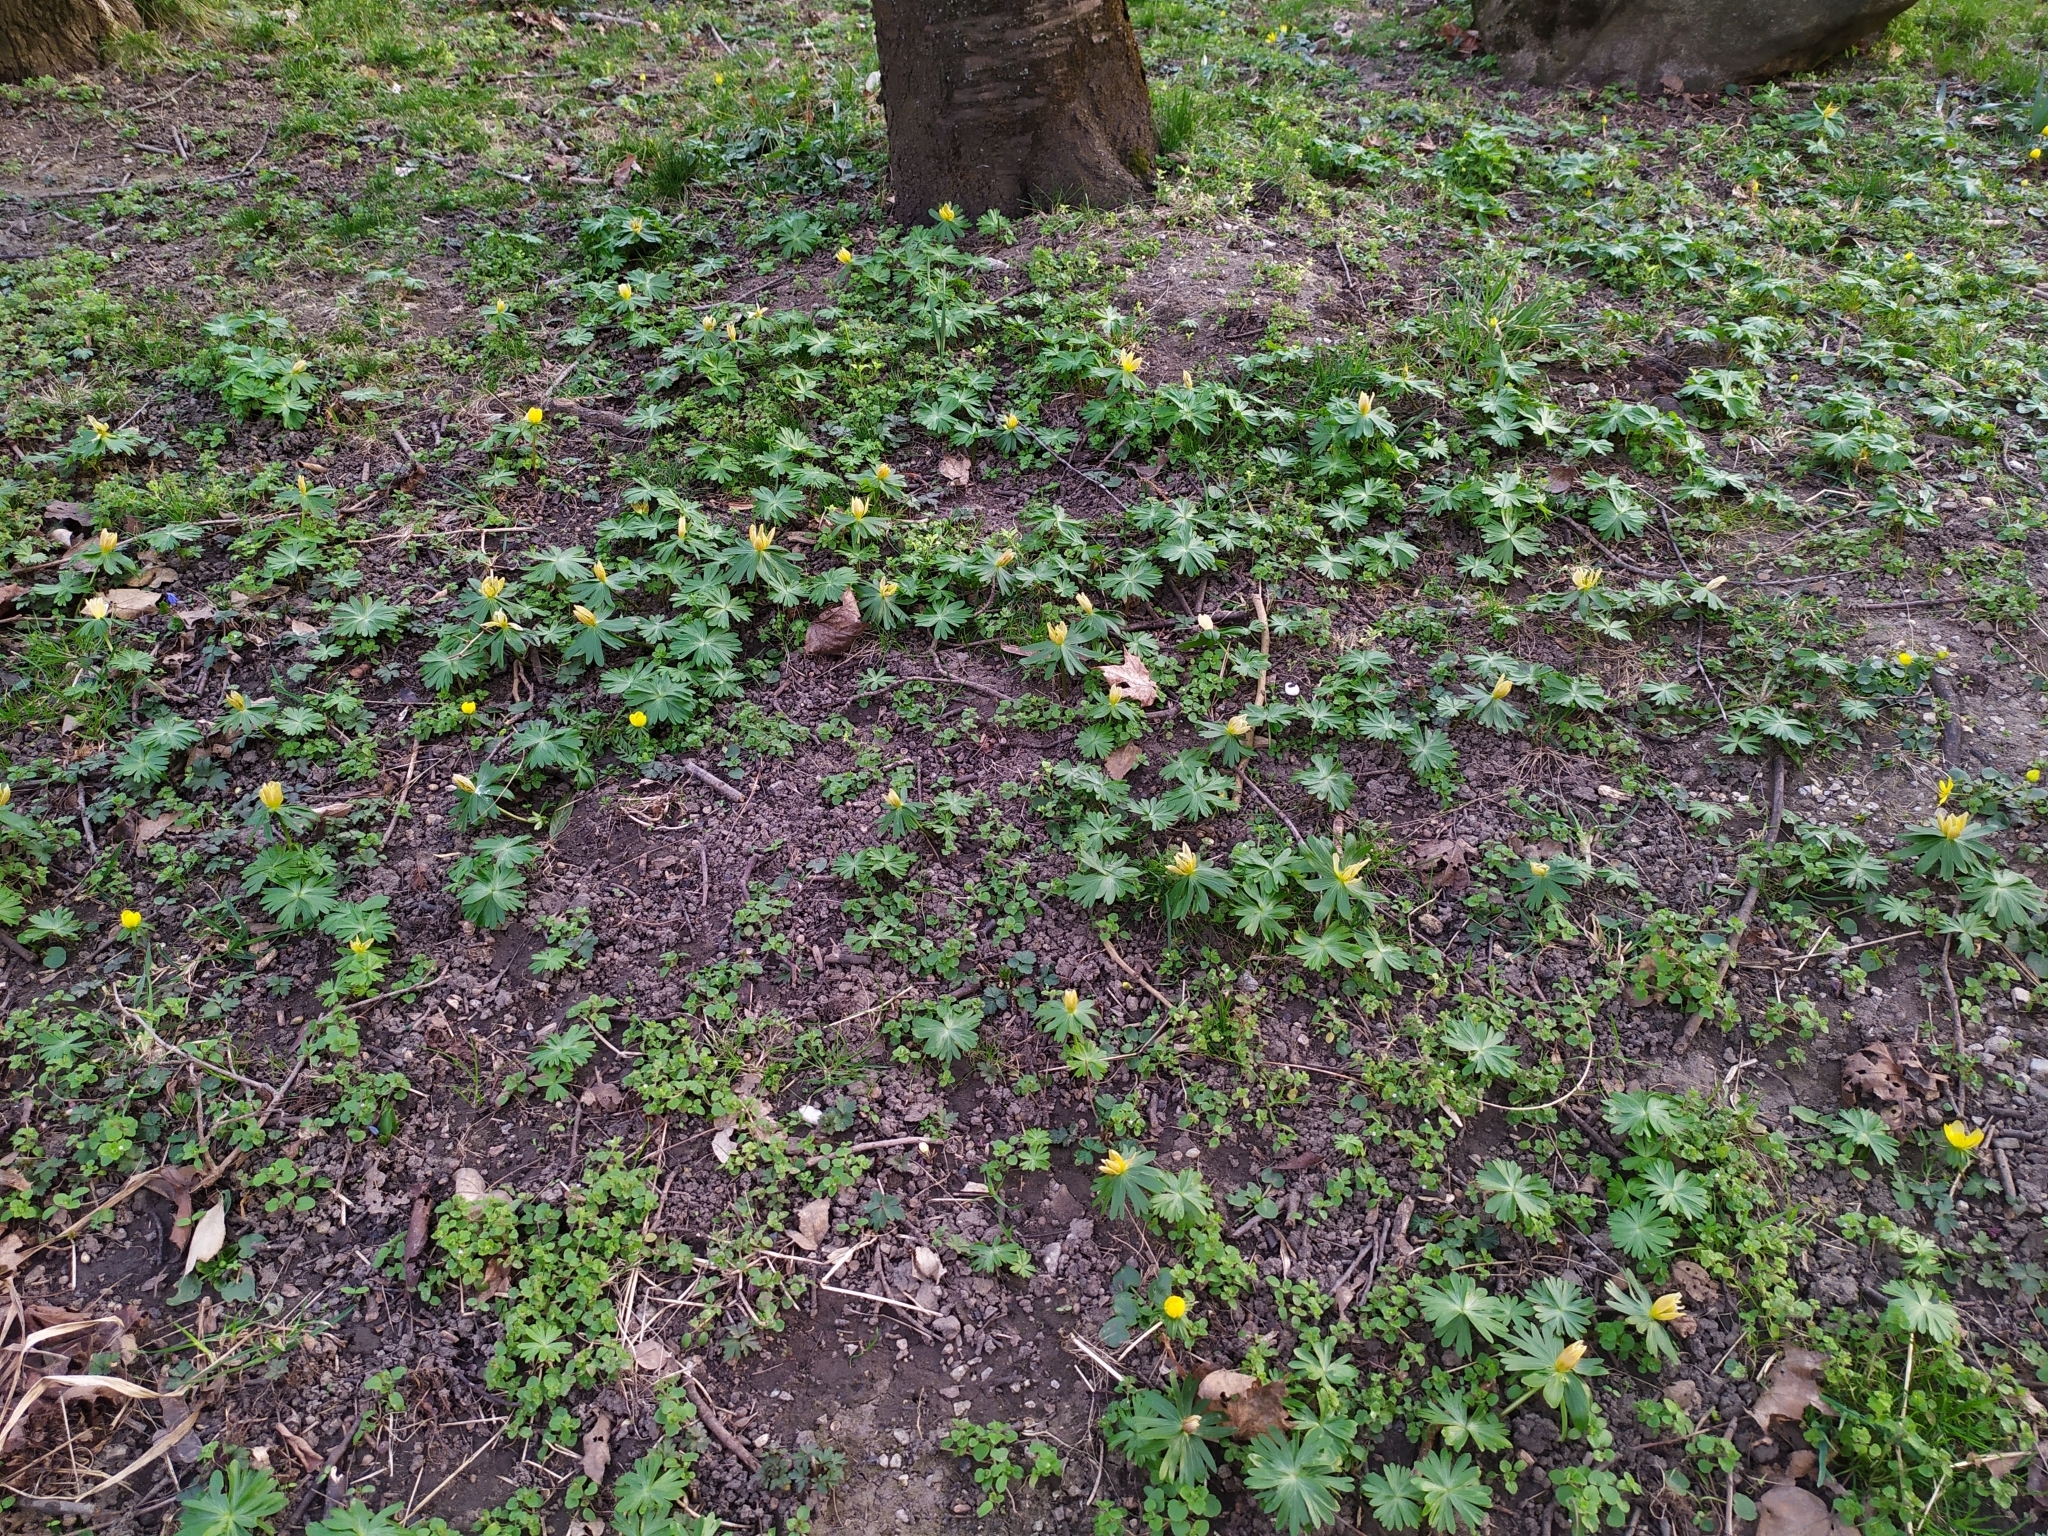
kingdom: Plantae
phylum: Tracheophyta
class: Magnoliopsida
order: Ranunculales
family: Ranunculaceae
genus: Eranthis
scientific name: Eranthis hyemalis
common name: Winter aconite
